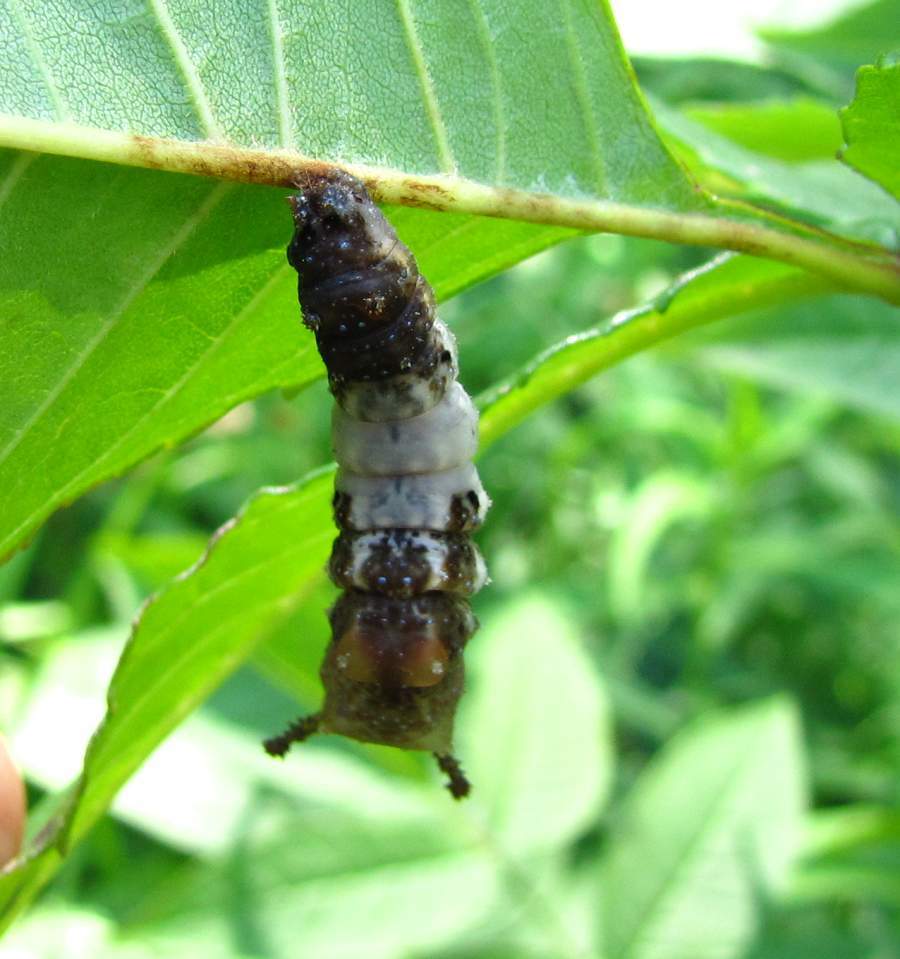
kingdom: Animalia
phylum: Arthropoda
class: Insecta
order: Lepidoptera
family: Nymphalidae
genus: Limenitis
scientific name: Limenitis
